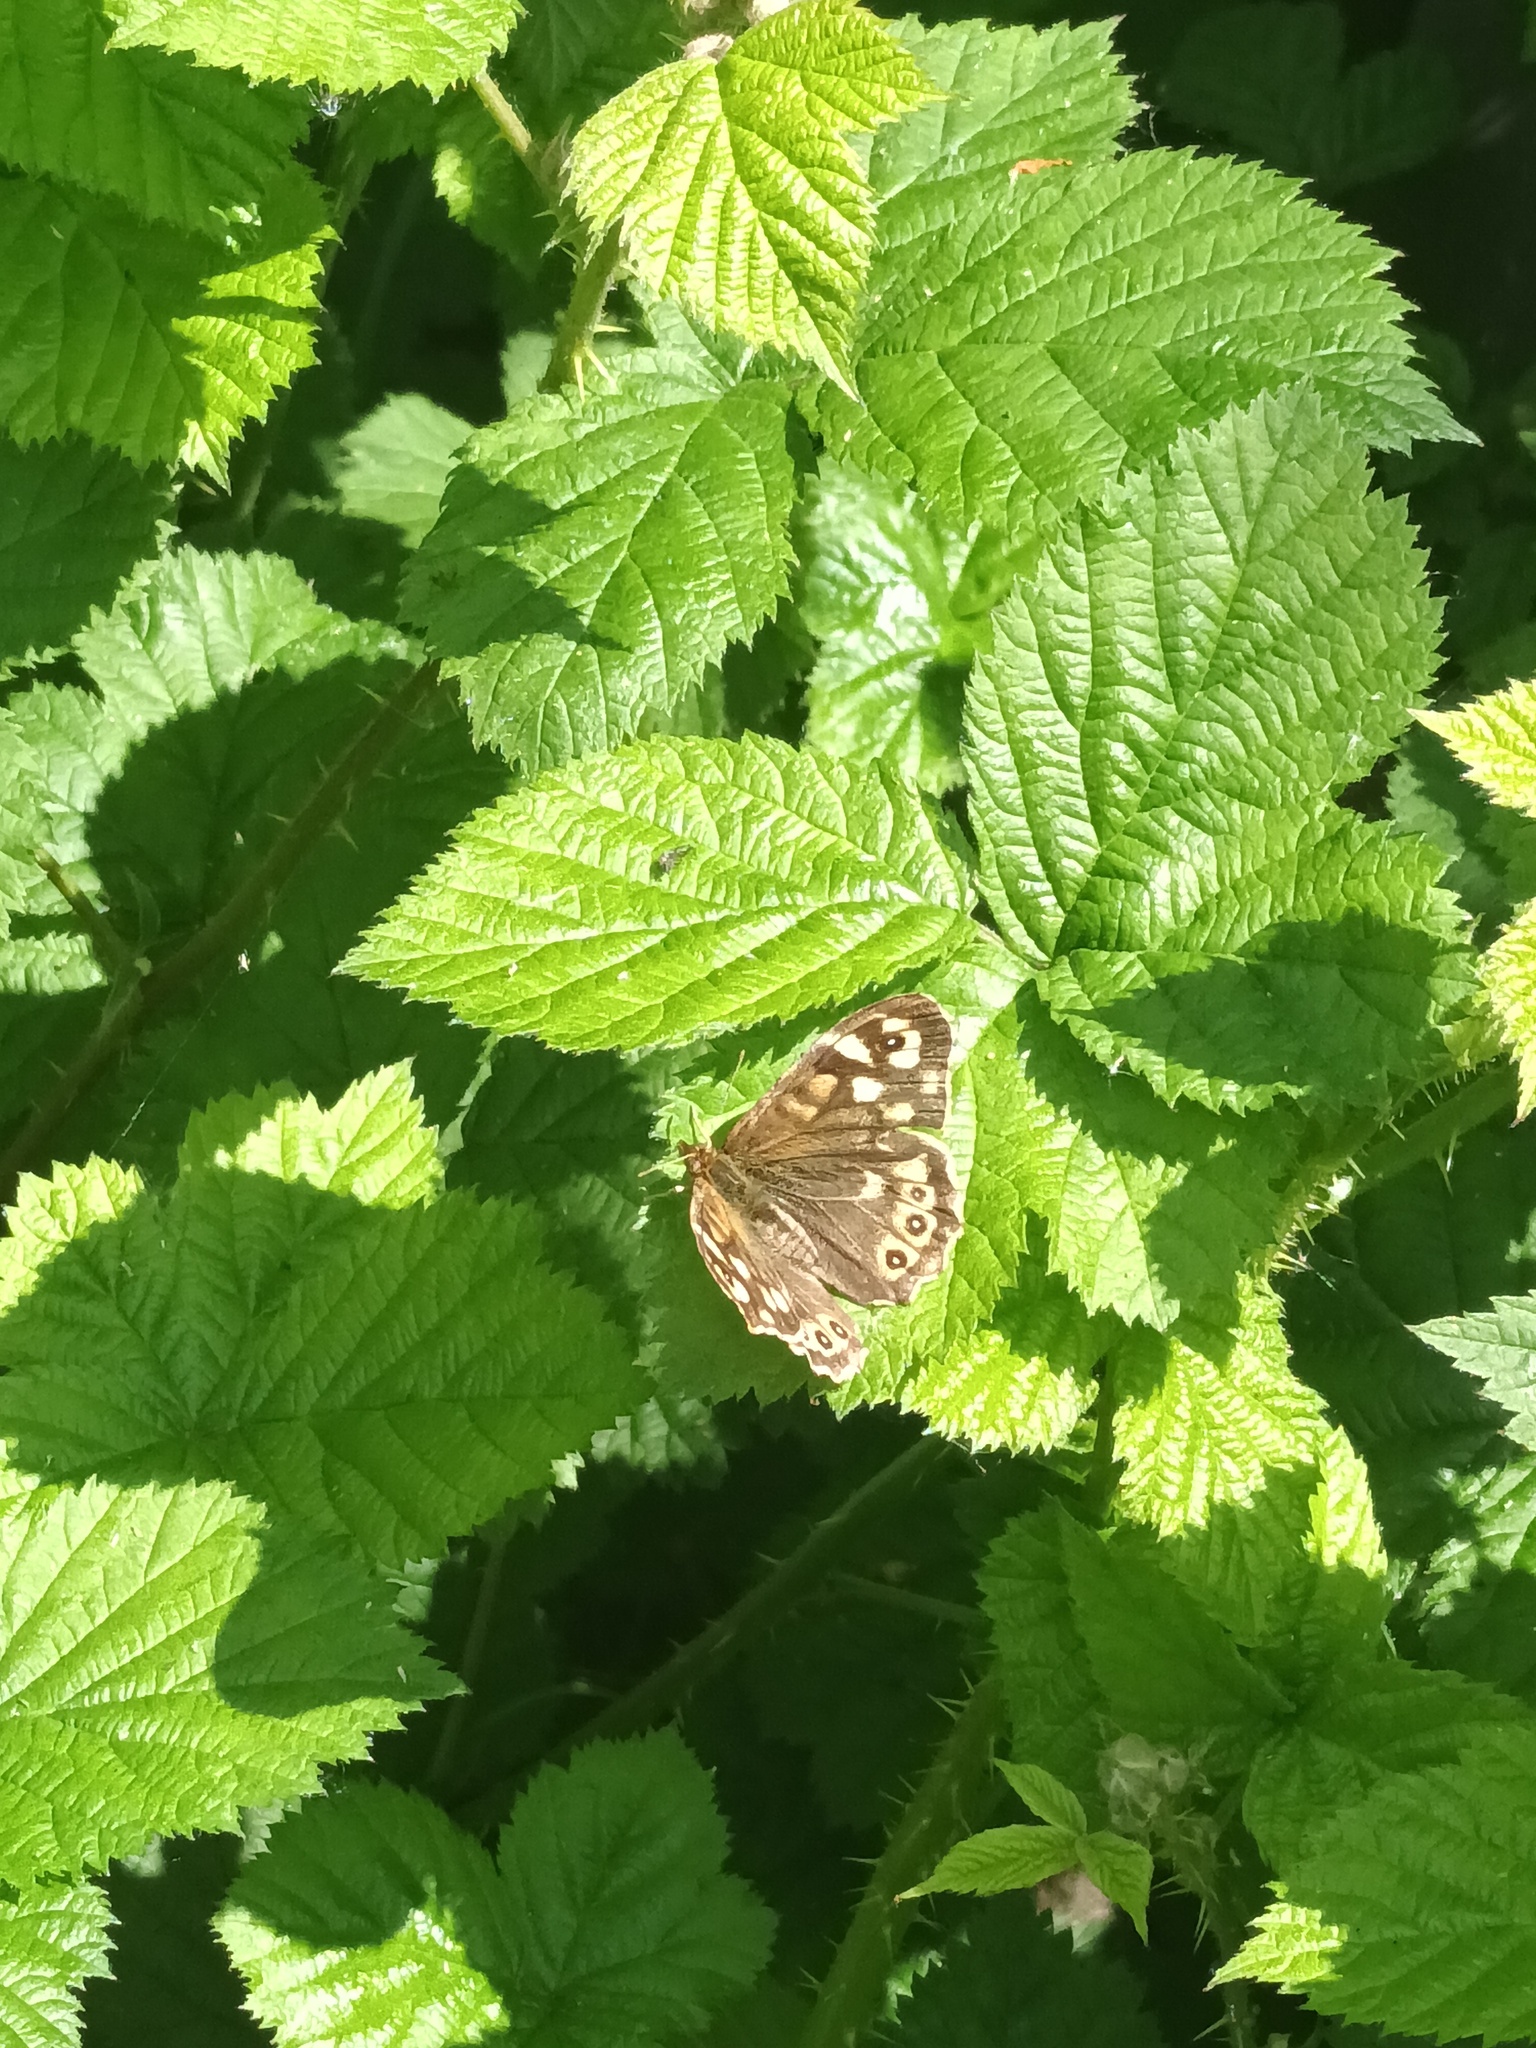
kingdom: Animalia
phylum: Arthropoda
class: Insecta
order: Lepidoptera
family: Nymphalidae
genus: Pararge
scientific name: Pararge aegeria
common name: Speckled wood
